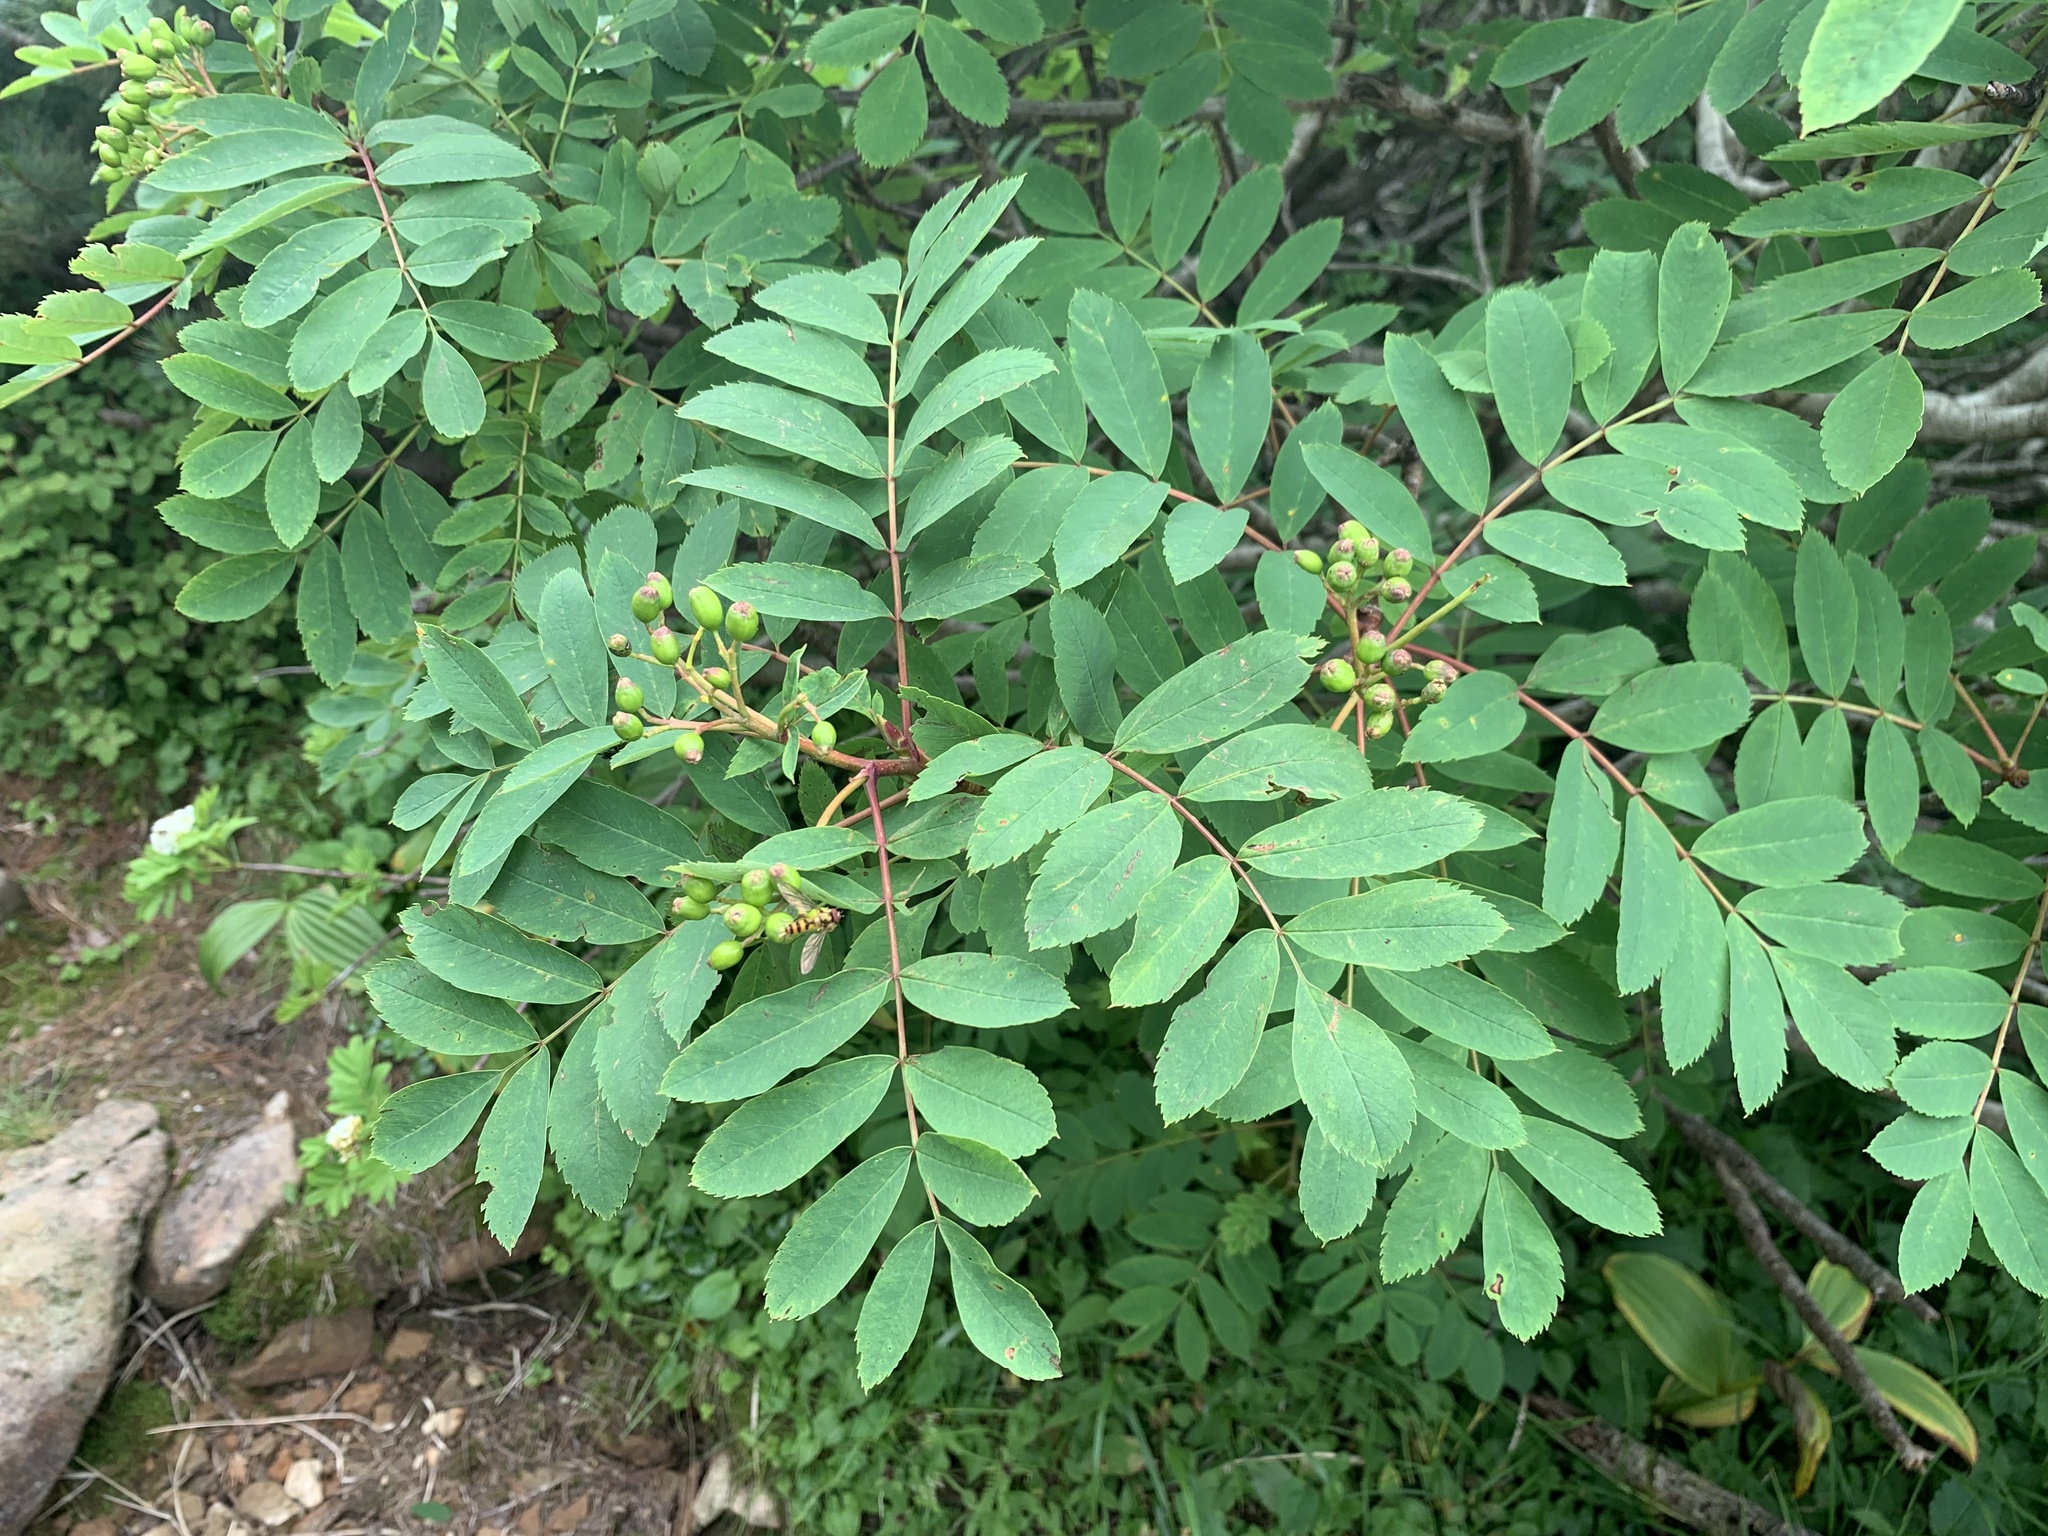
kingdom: Plantae
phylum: Tracheophyta
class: Magnoliopsida
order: Rosales
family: Rosaceae
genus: Sorbus
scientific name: Sorbus matsumurana
